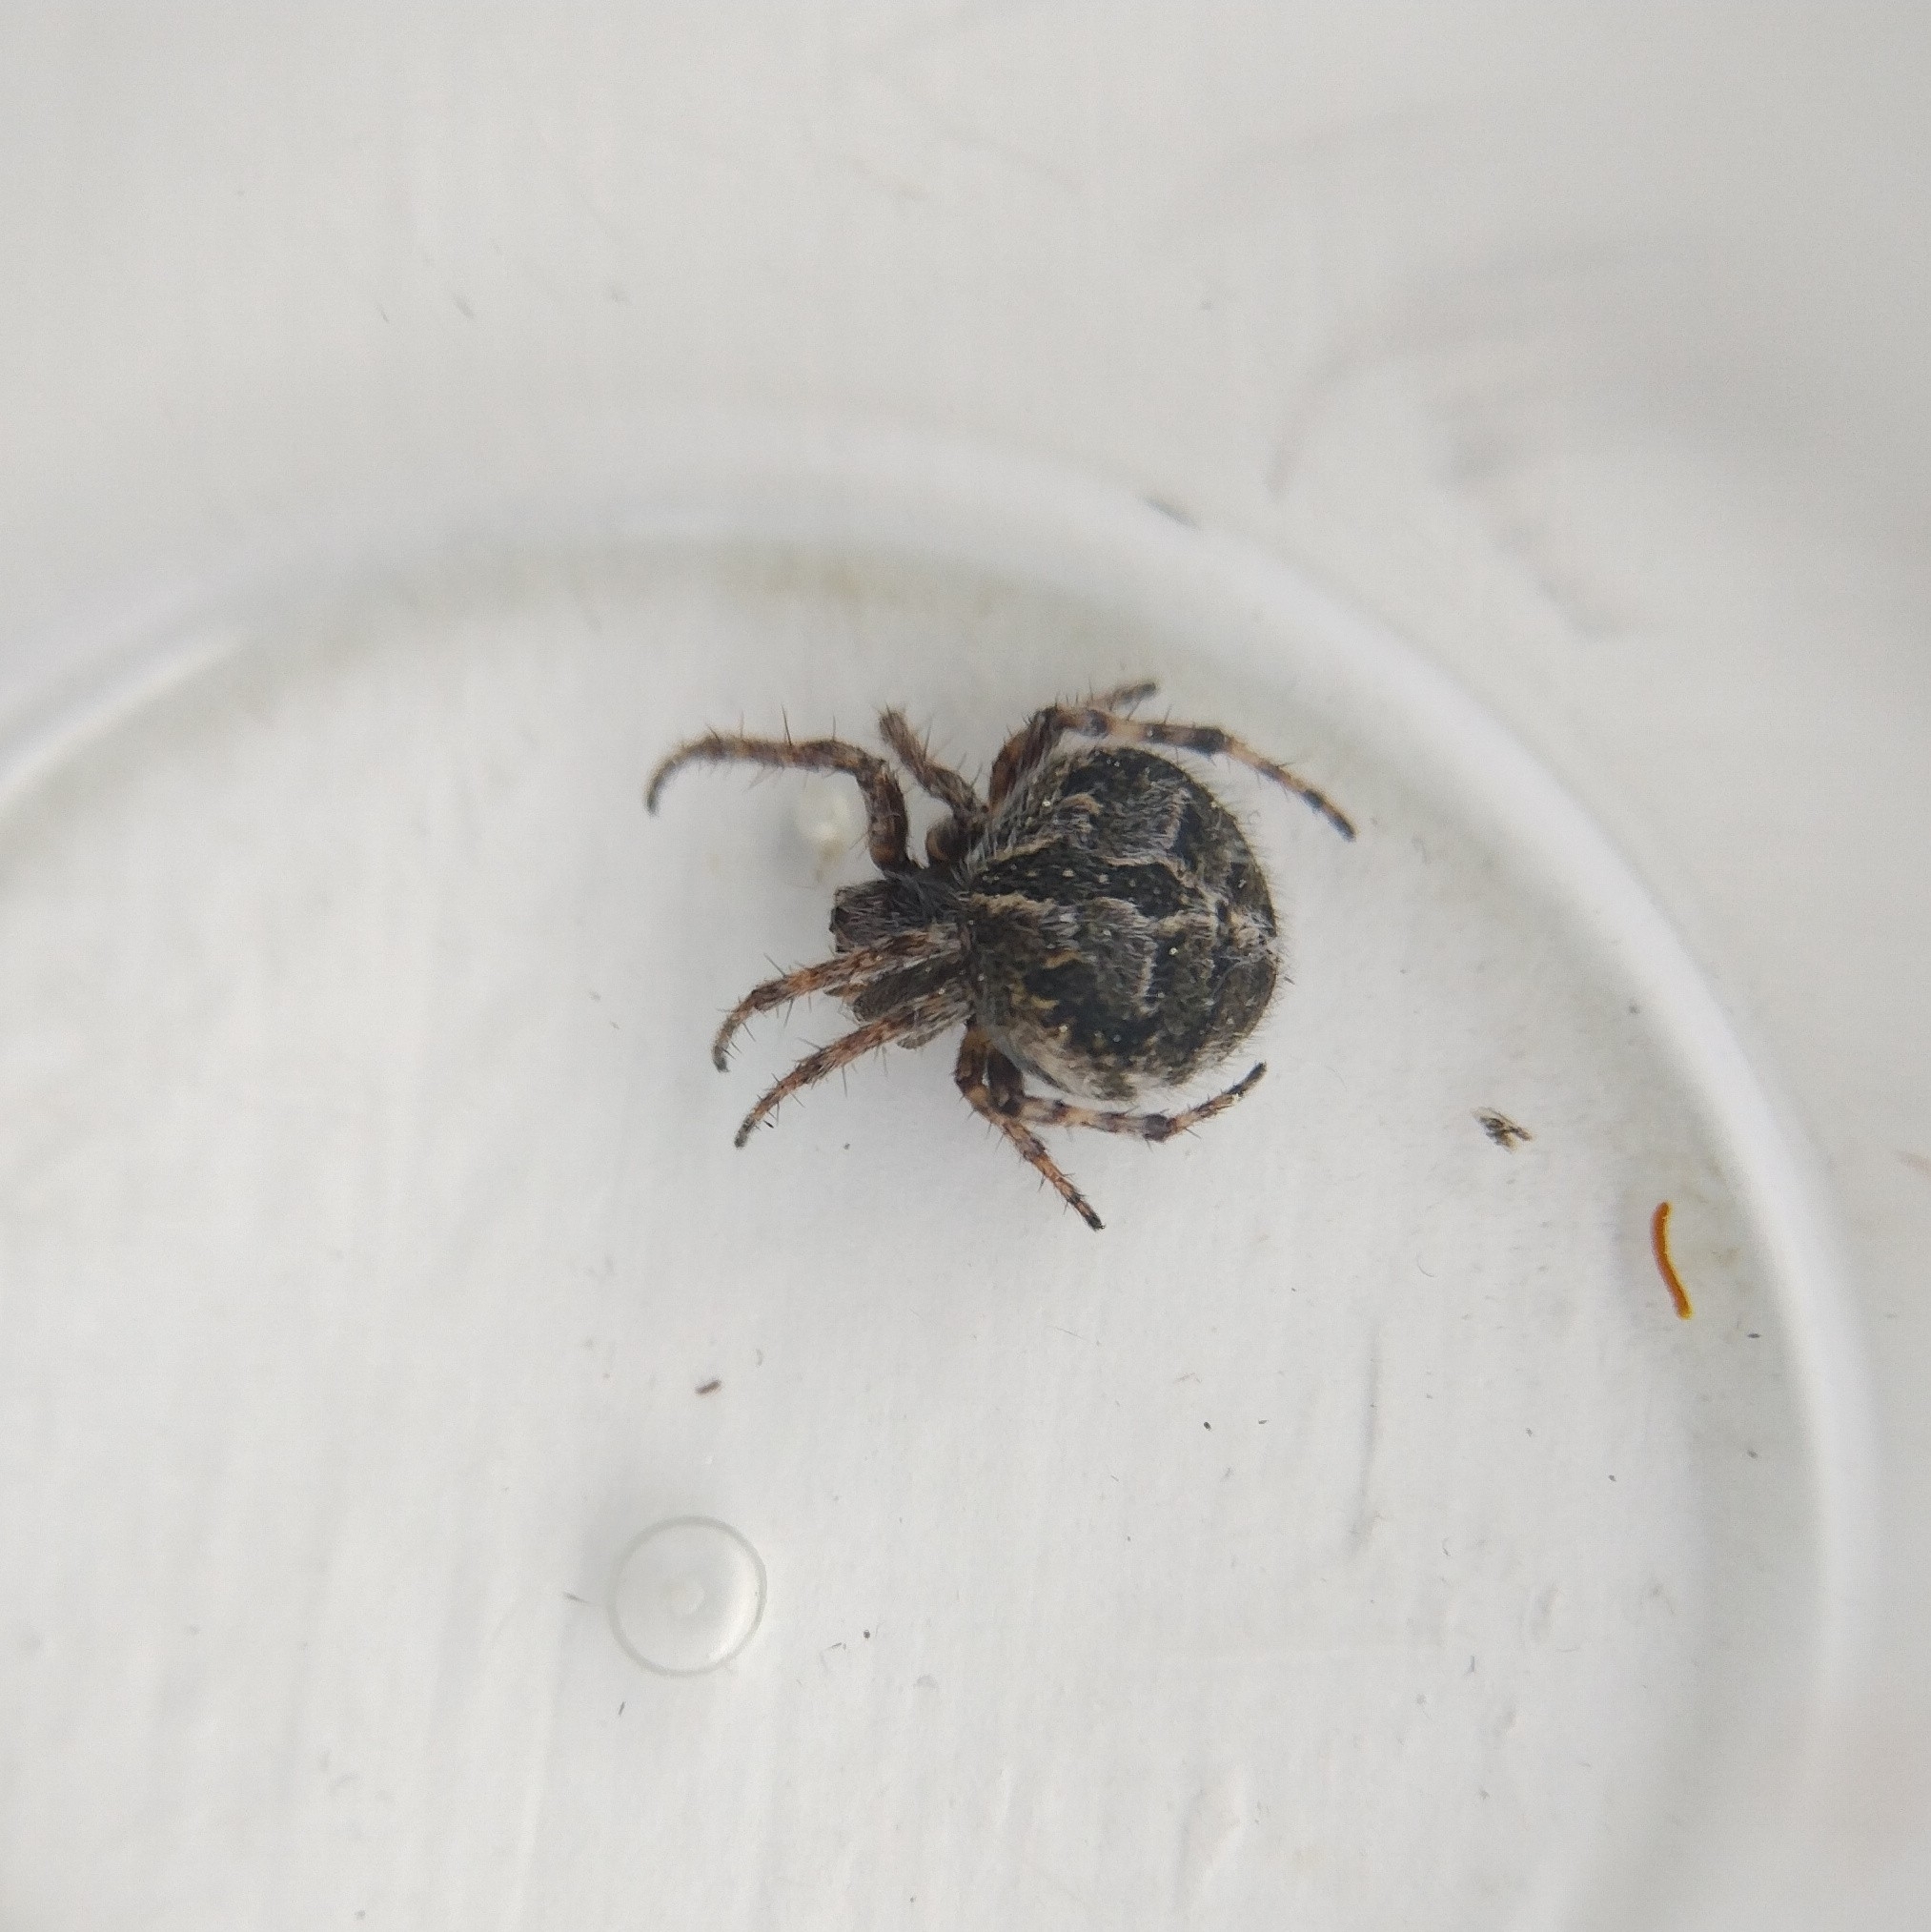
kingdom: Animalia
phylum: Arthropoda
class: Arachnida
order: Araneae
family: Araneidae
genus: Agalenatea
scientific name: Agalenatea redii
